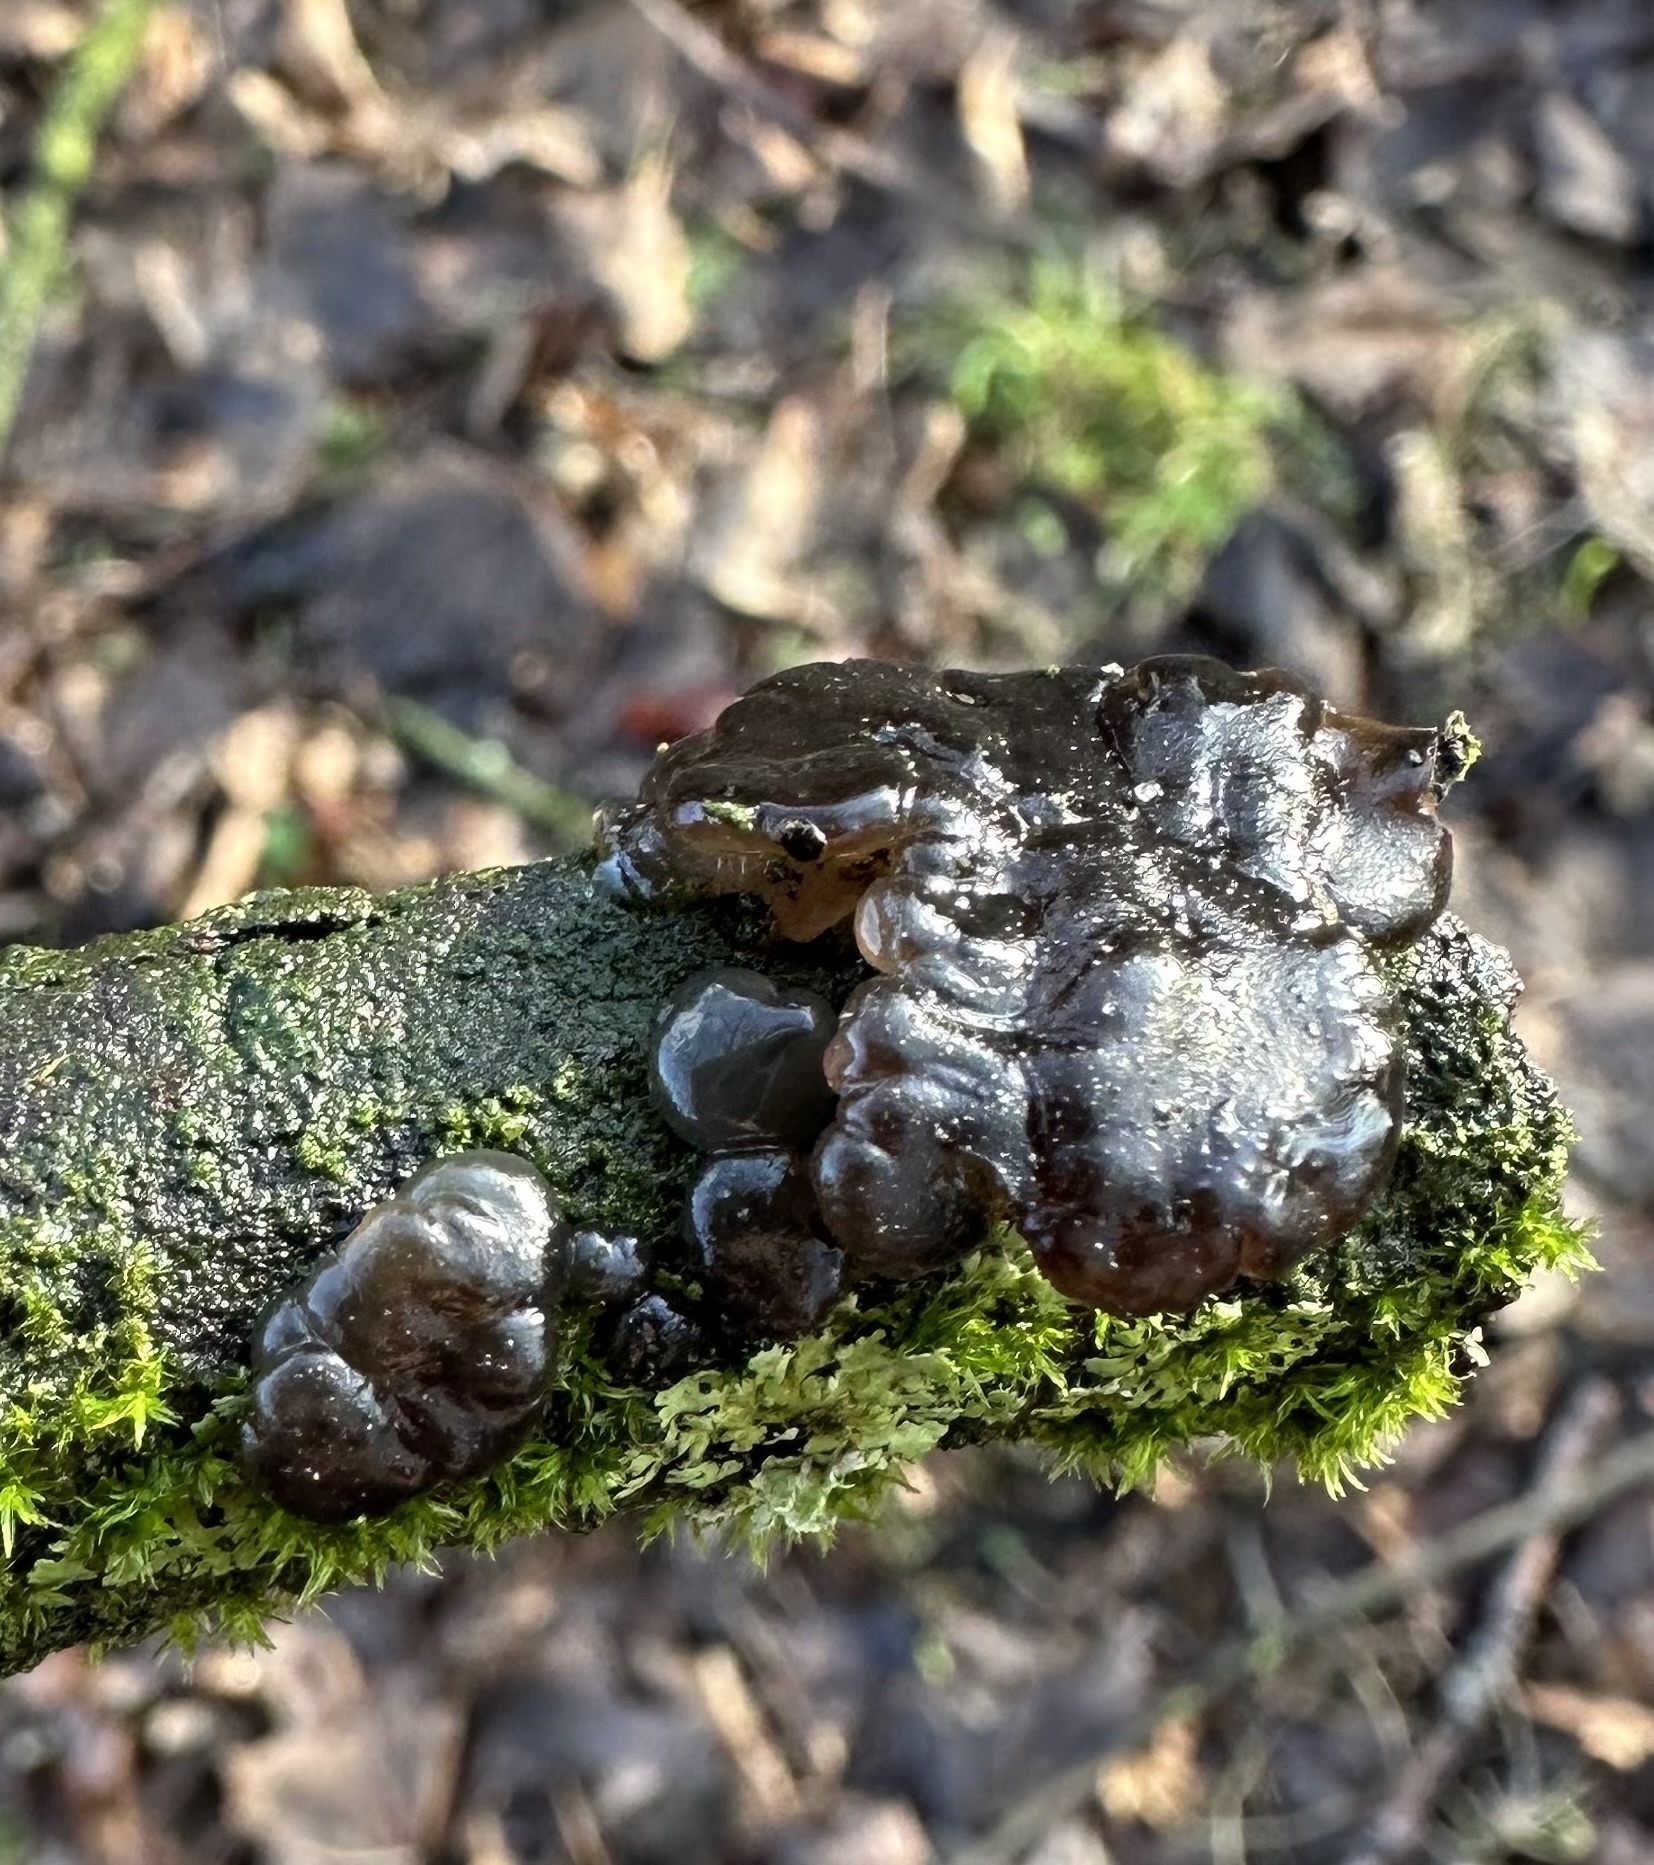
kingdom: Fungi
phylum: Basidiomycota
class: Agaricomycetes
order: Auriculariales
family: Auriculariaceae
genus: Exidia
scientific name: Exidia glandulosa
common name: Witches' butter
